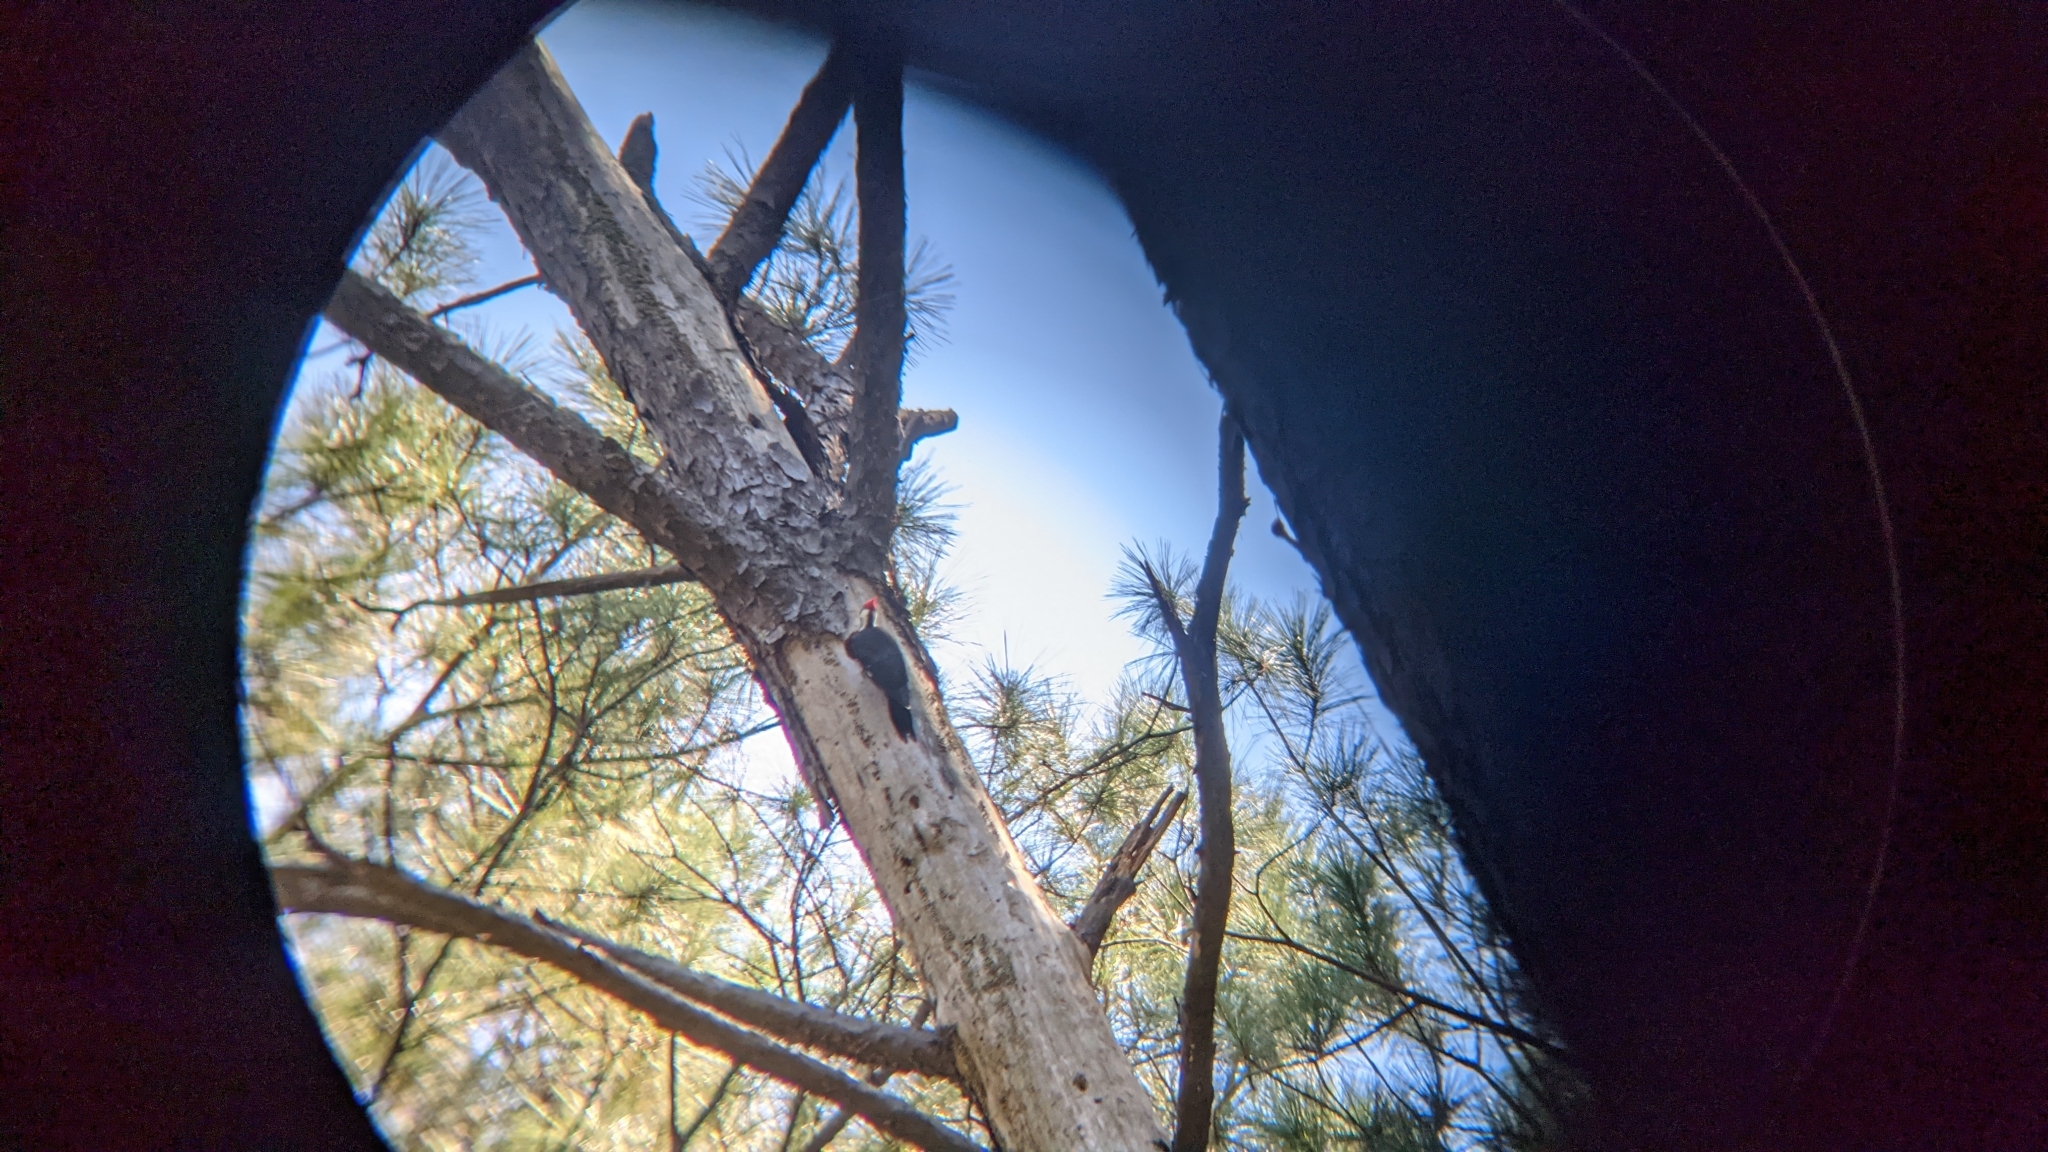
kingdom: Animalia
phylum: Chordata
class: Aves
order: Piciformes
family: Picidae
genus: Dryocopus
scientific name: Dryocopus pileatus
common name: Pileated woodpecker
